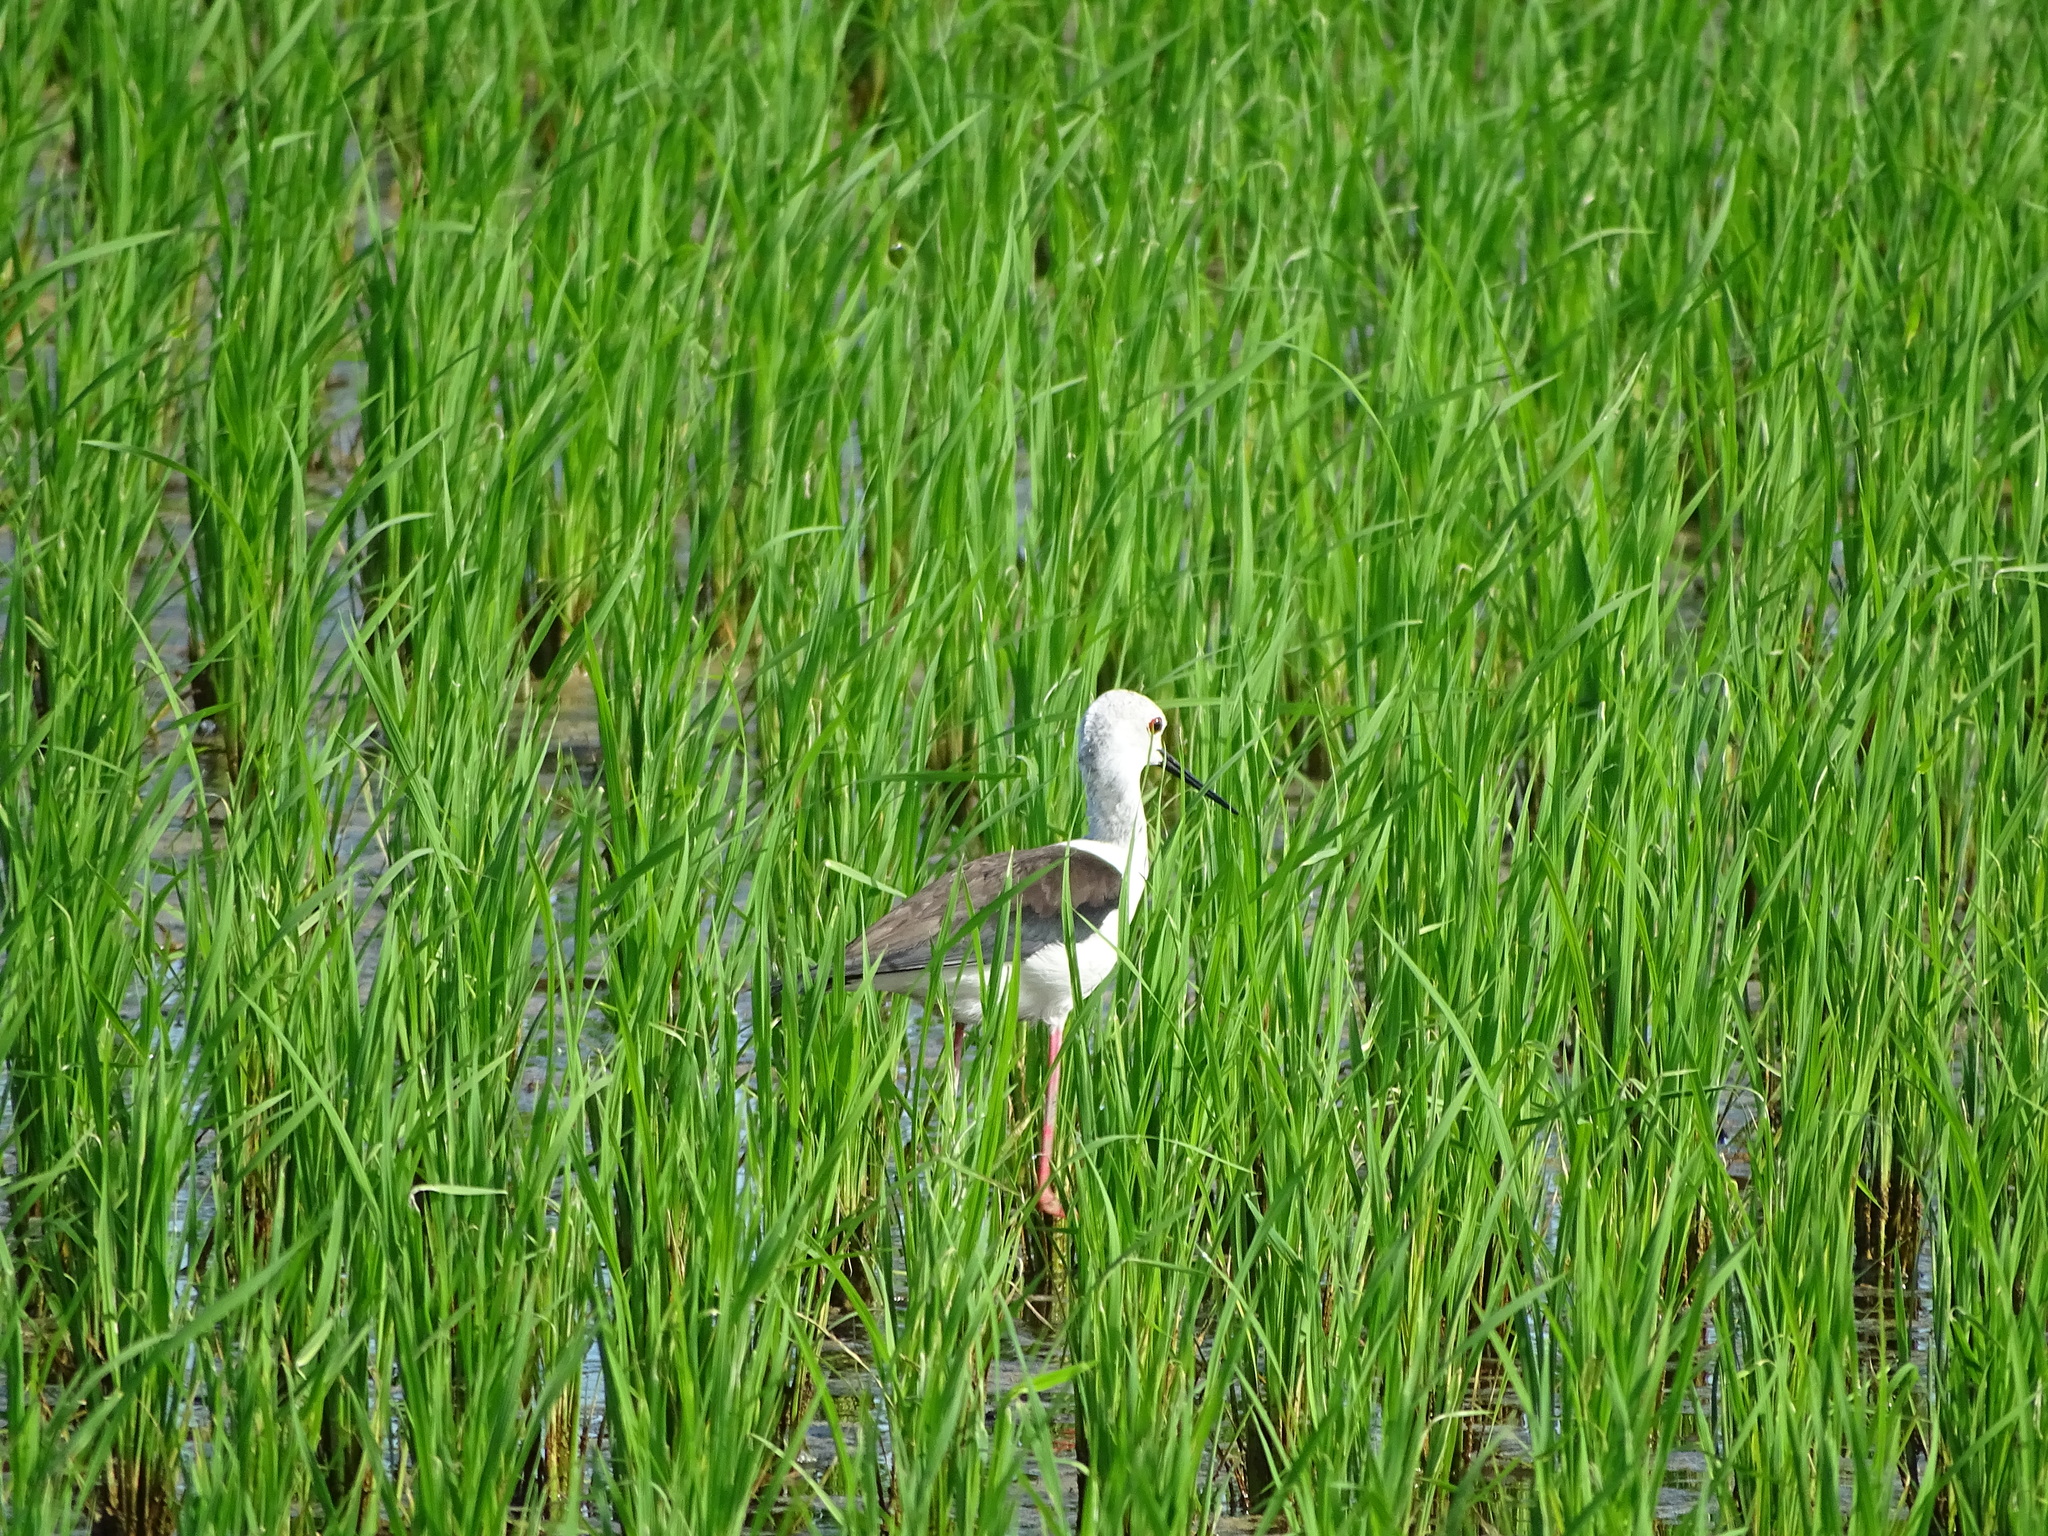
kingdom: Animalia
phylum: Chordata
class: Aves
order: Charadriiformes
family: Recurvirostridae
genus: Himantopus
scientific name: Himantopus himantopus
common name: Black-winged stilt
